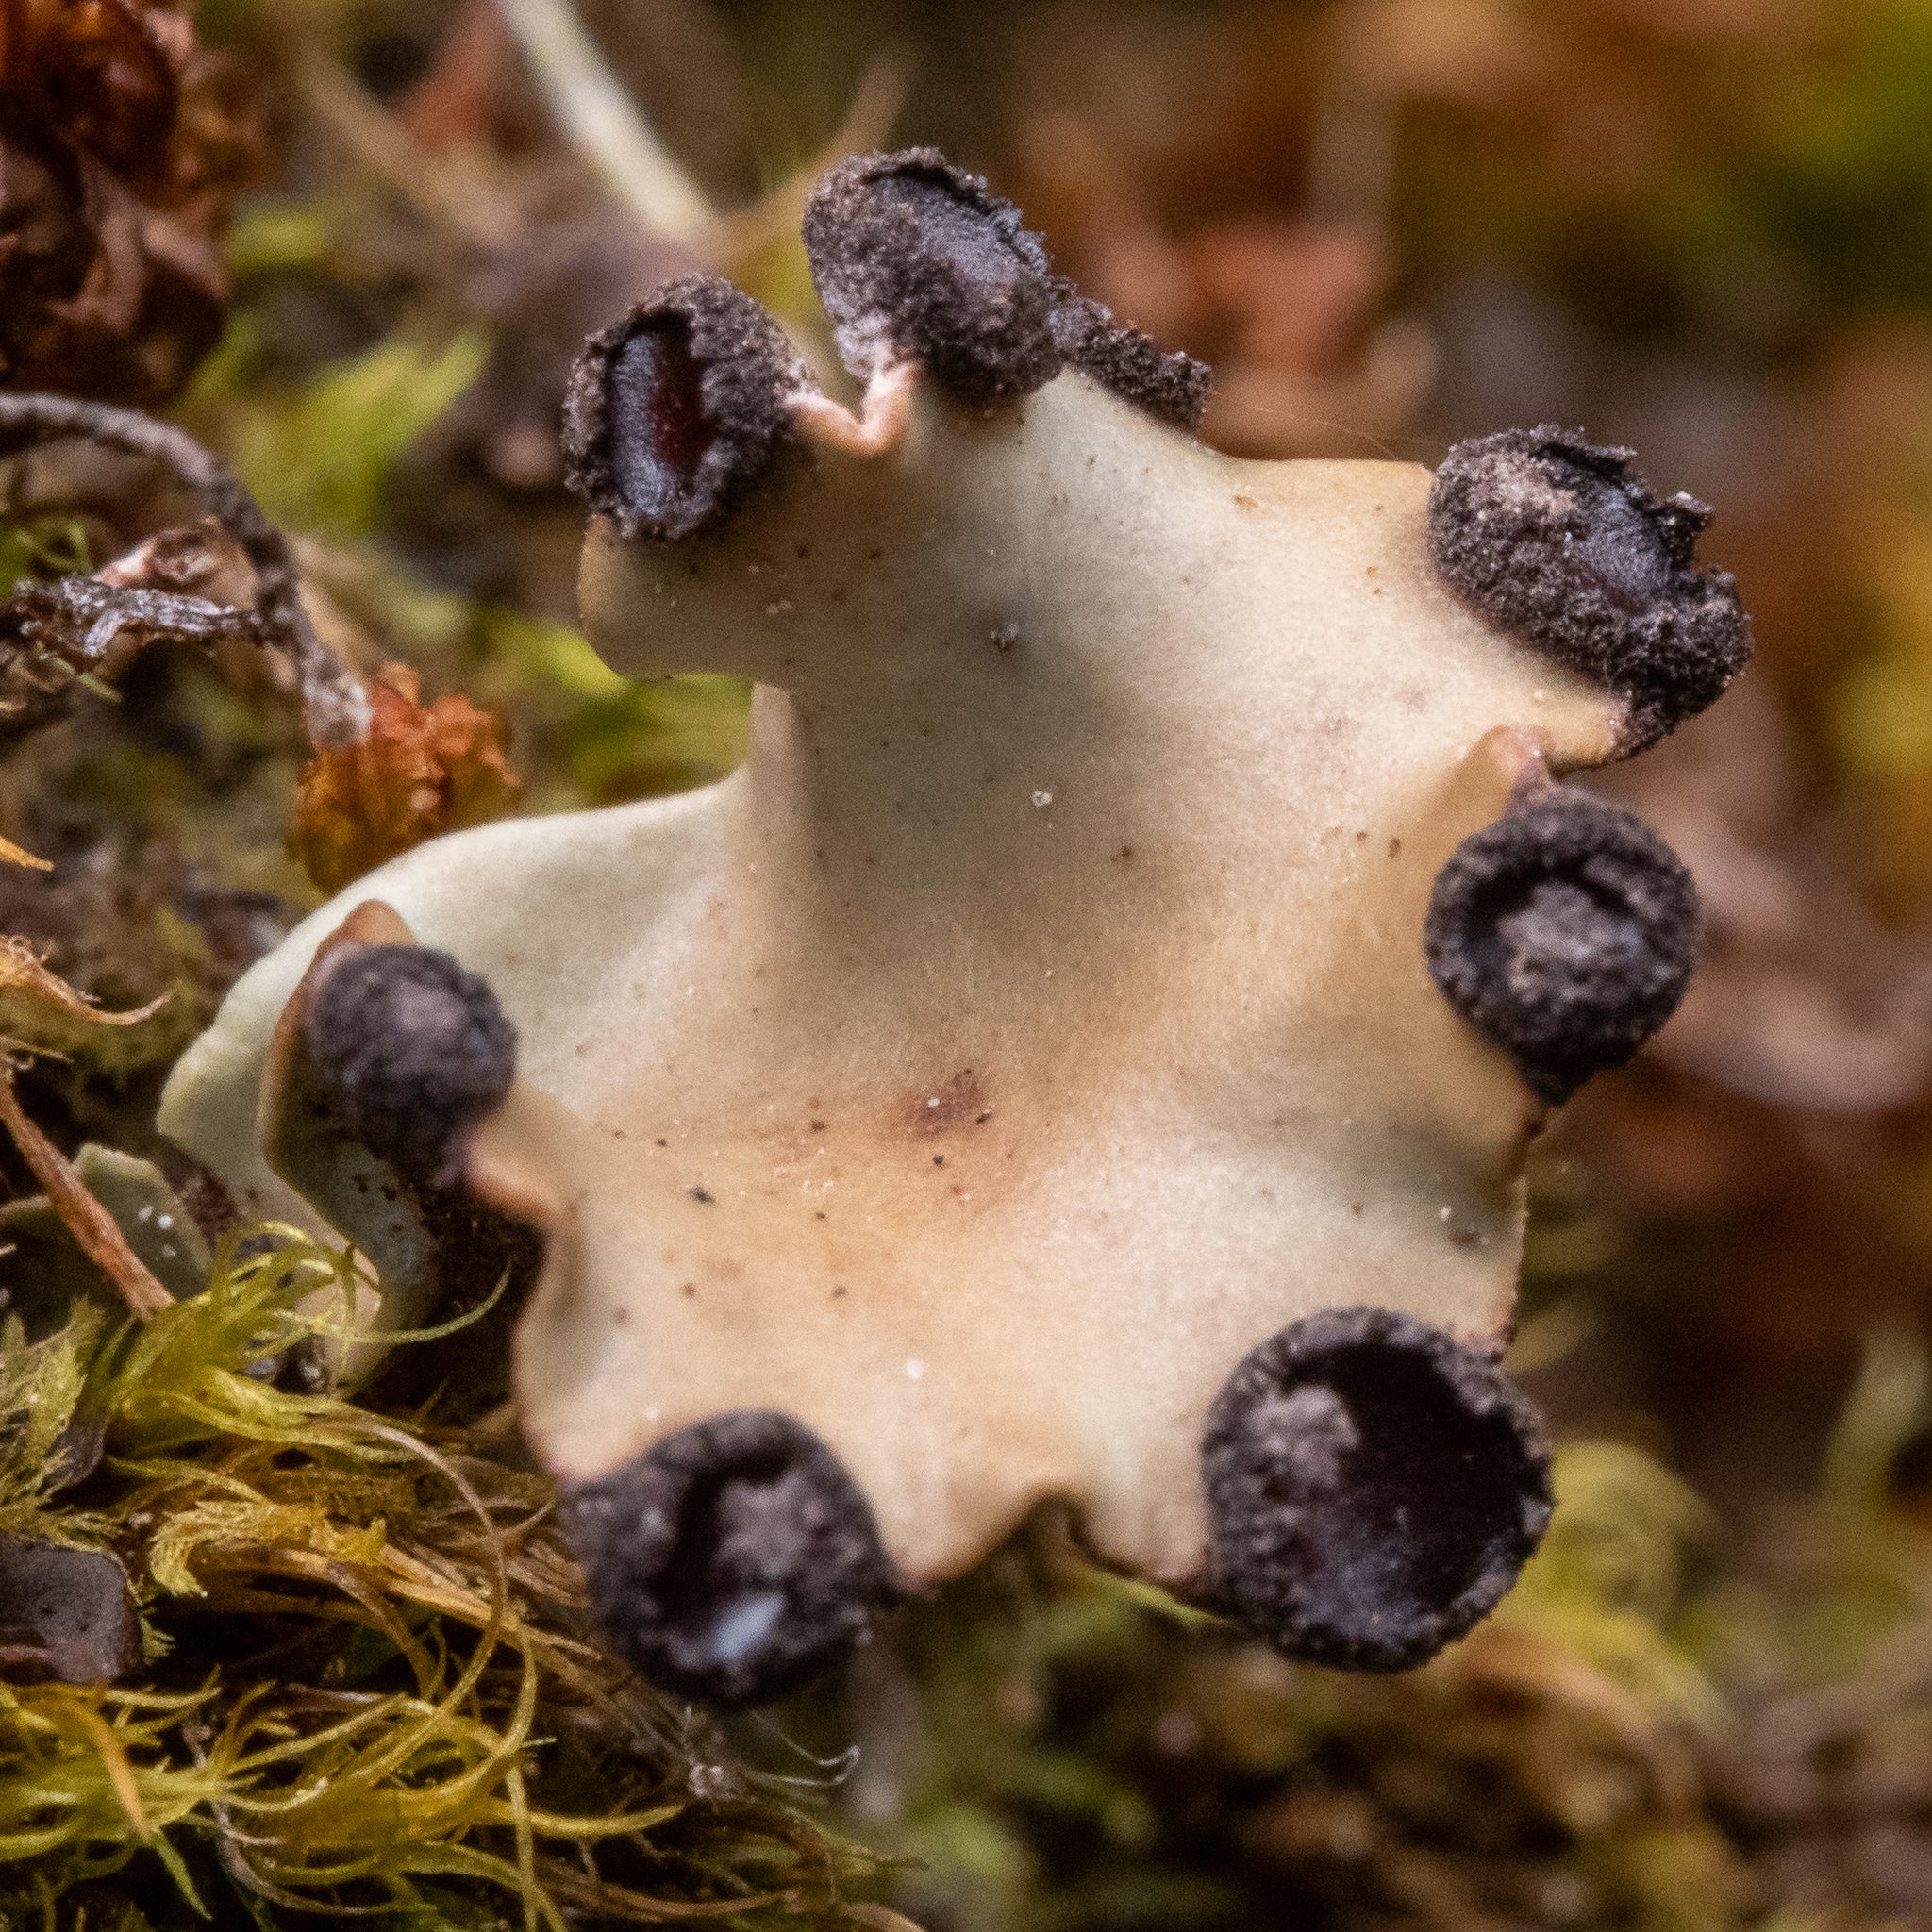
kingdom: Fungi
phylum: Ascomycota
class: Lecanoromycetes
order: Peltigerales
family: Peltigeraceae
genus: Peltigera
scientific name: Peltigera venosa
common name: Pixie gowns lichen
